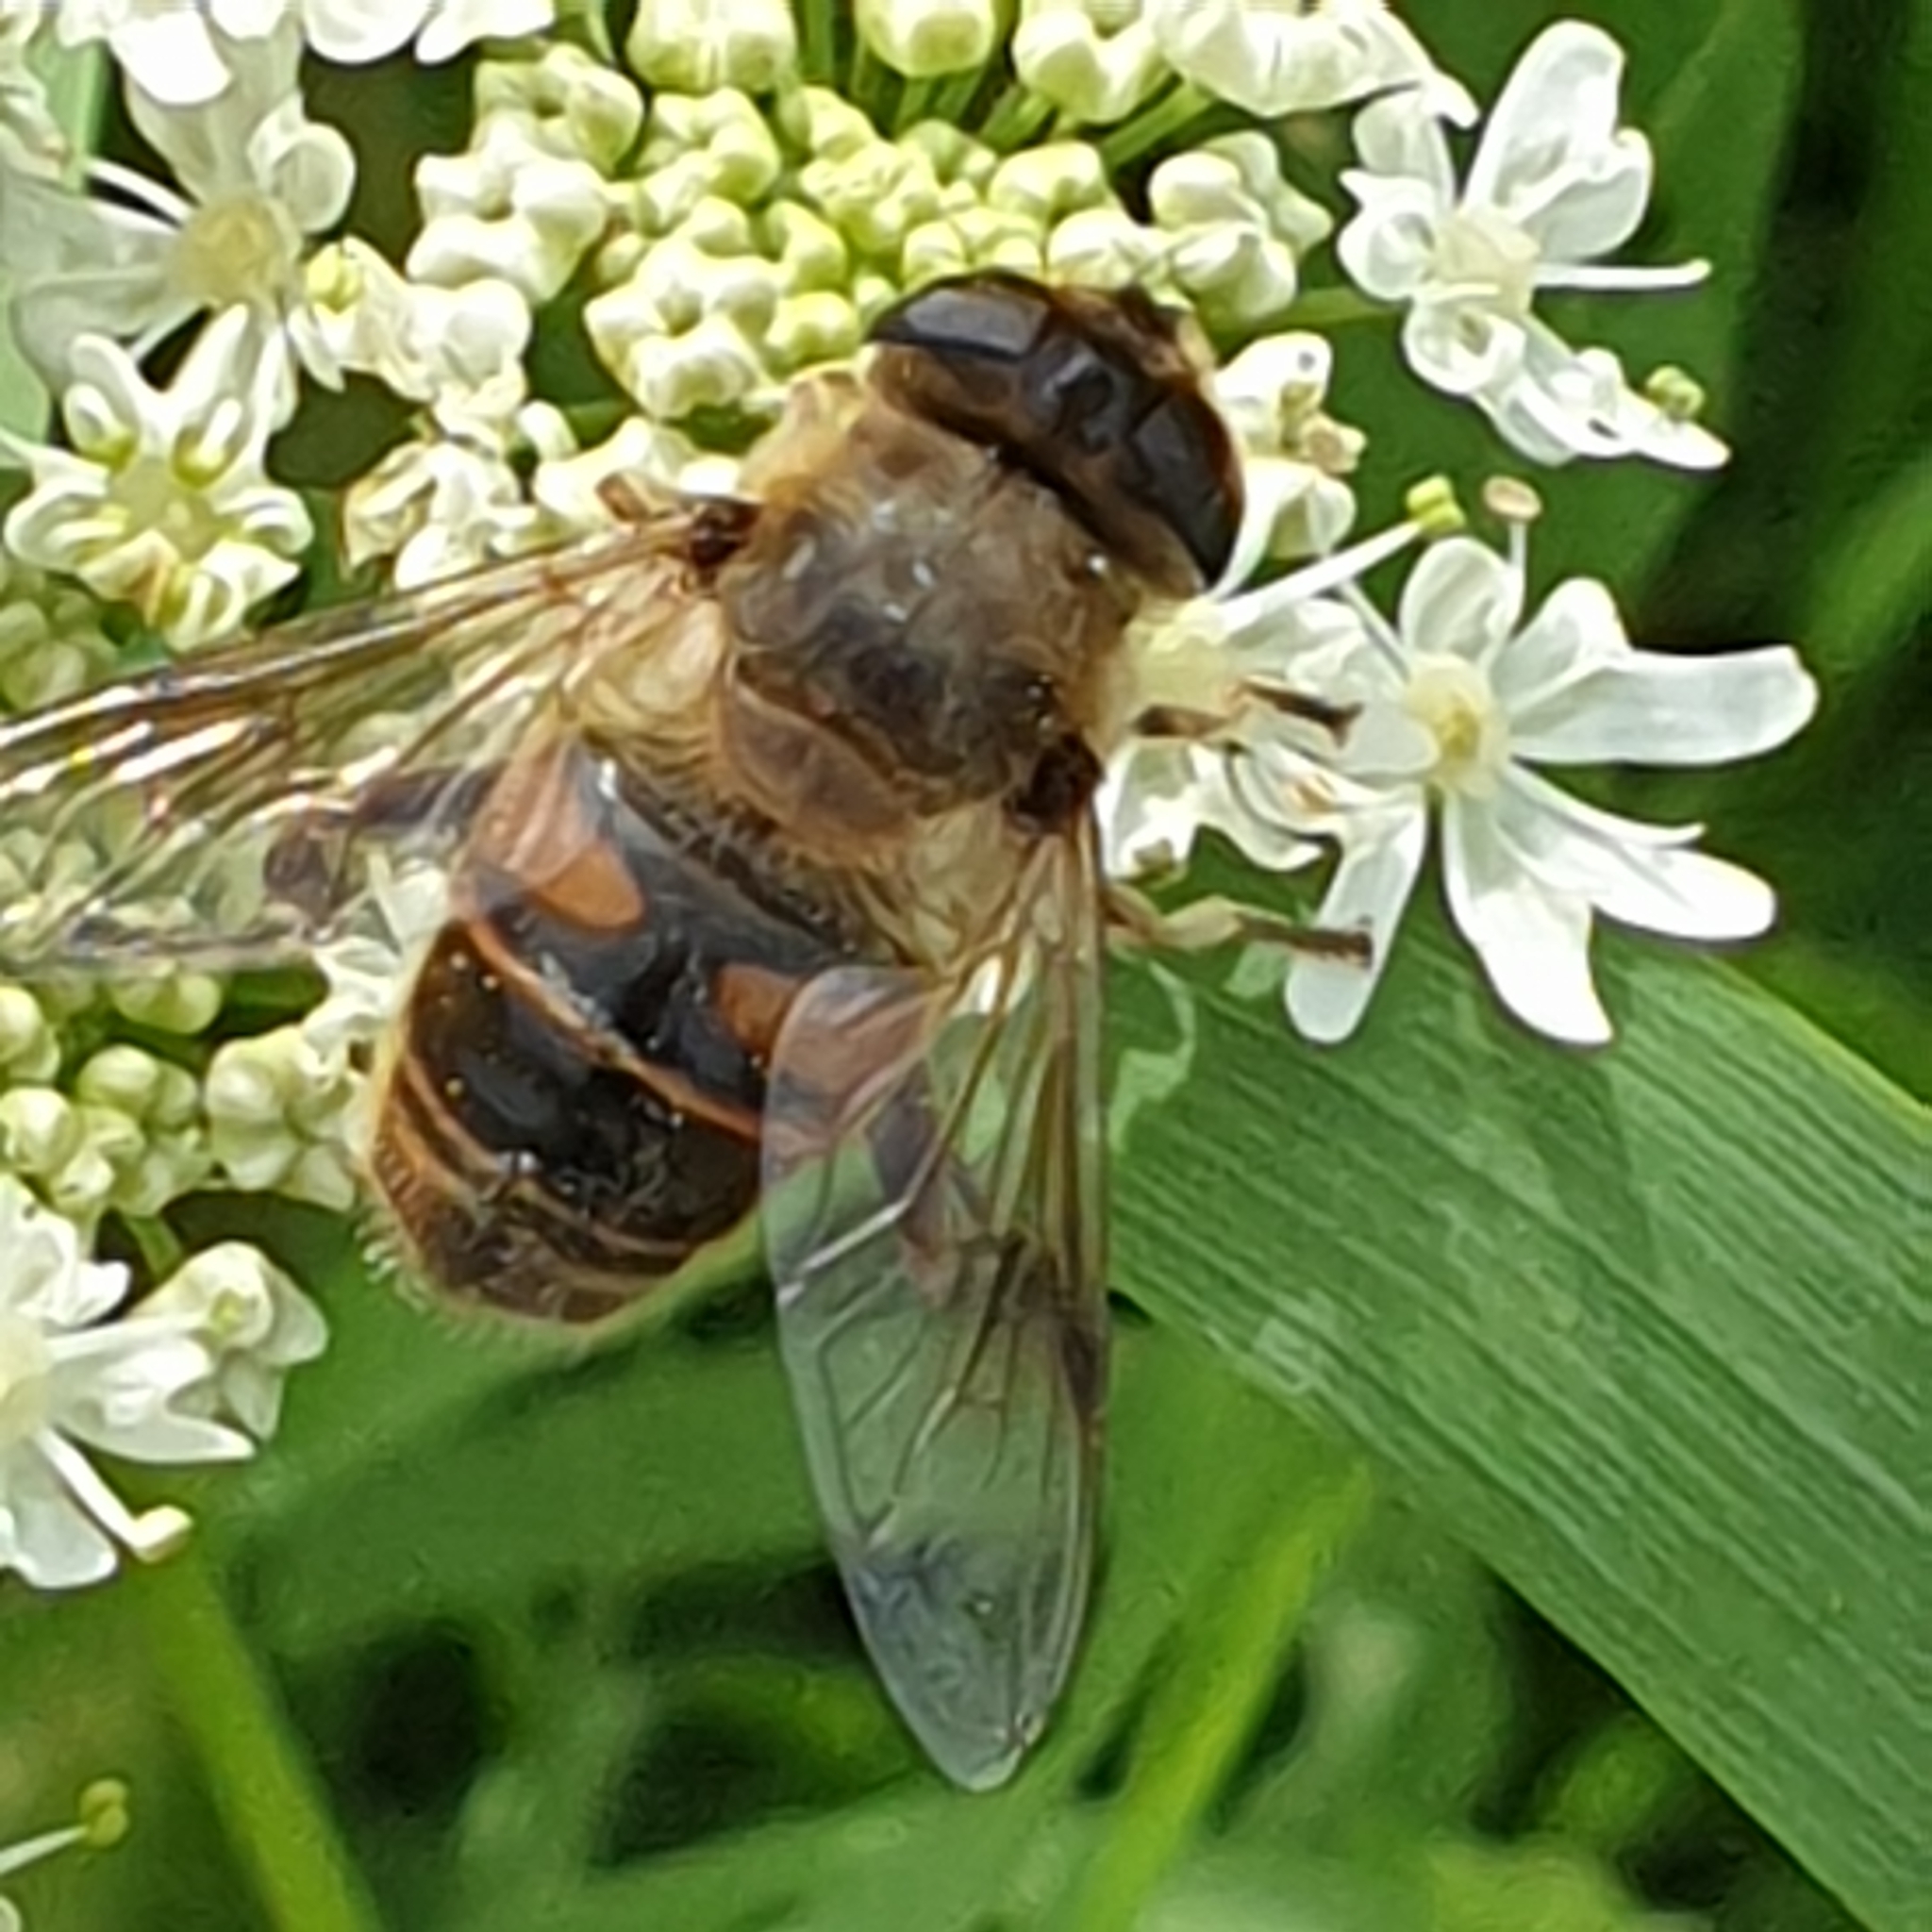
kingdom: Animalia
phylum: Arthropoda
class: Insecta
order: Diptera
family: Syrphidae
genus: Eristalis
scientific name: Eristalis tenax
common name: Drone fly
